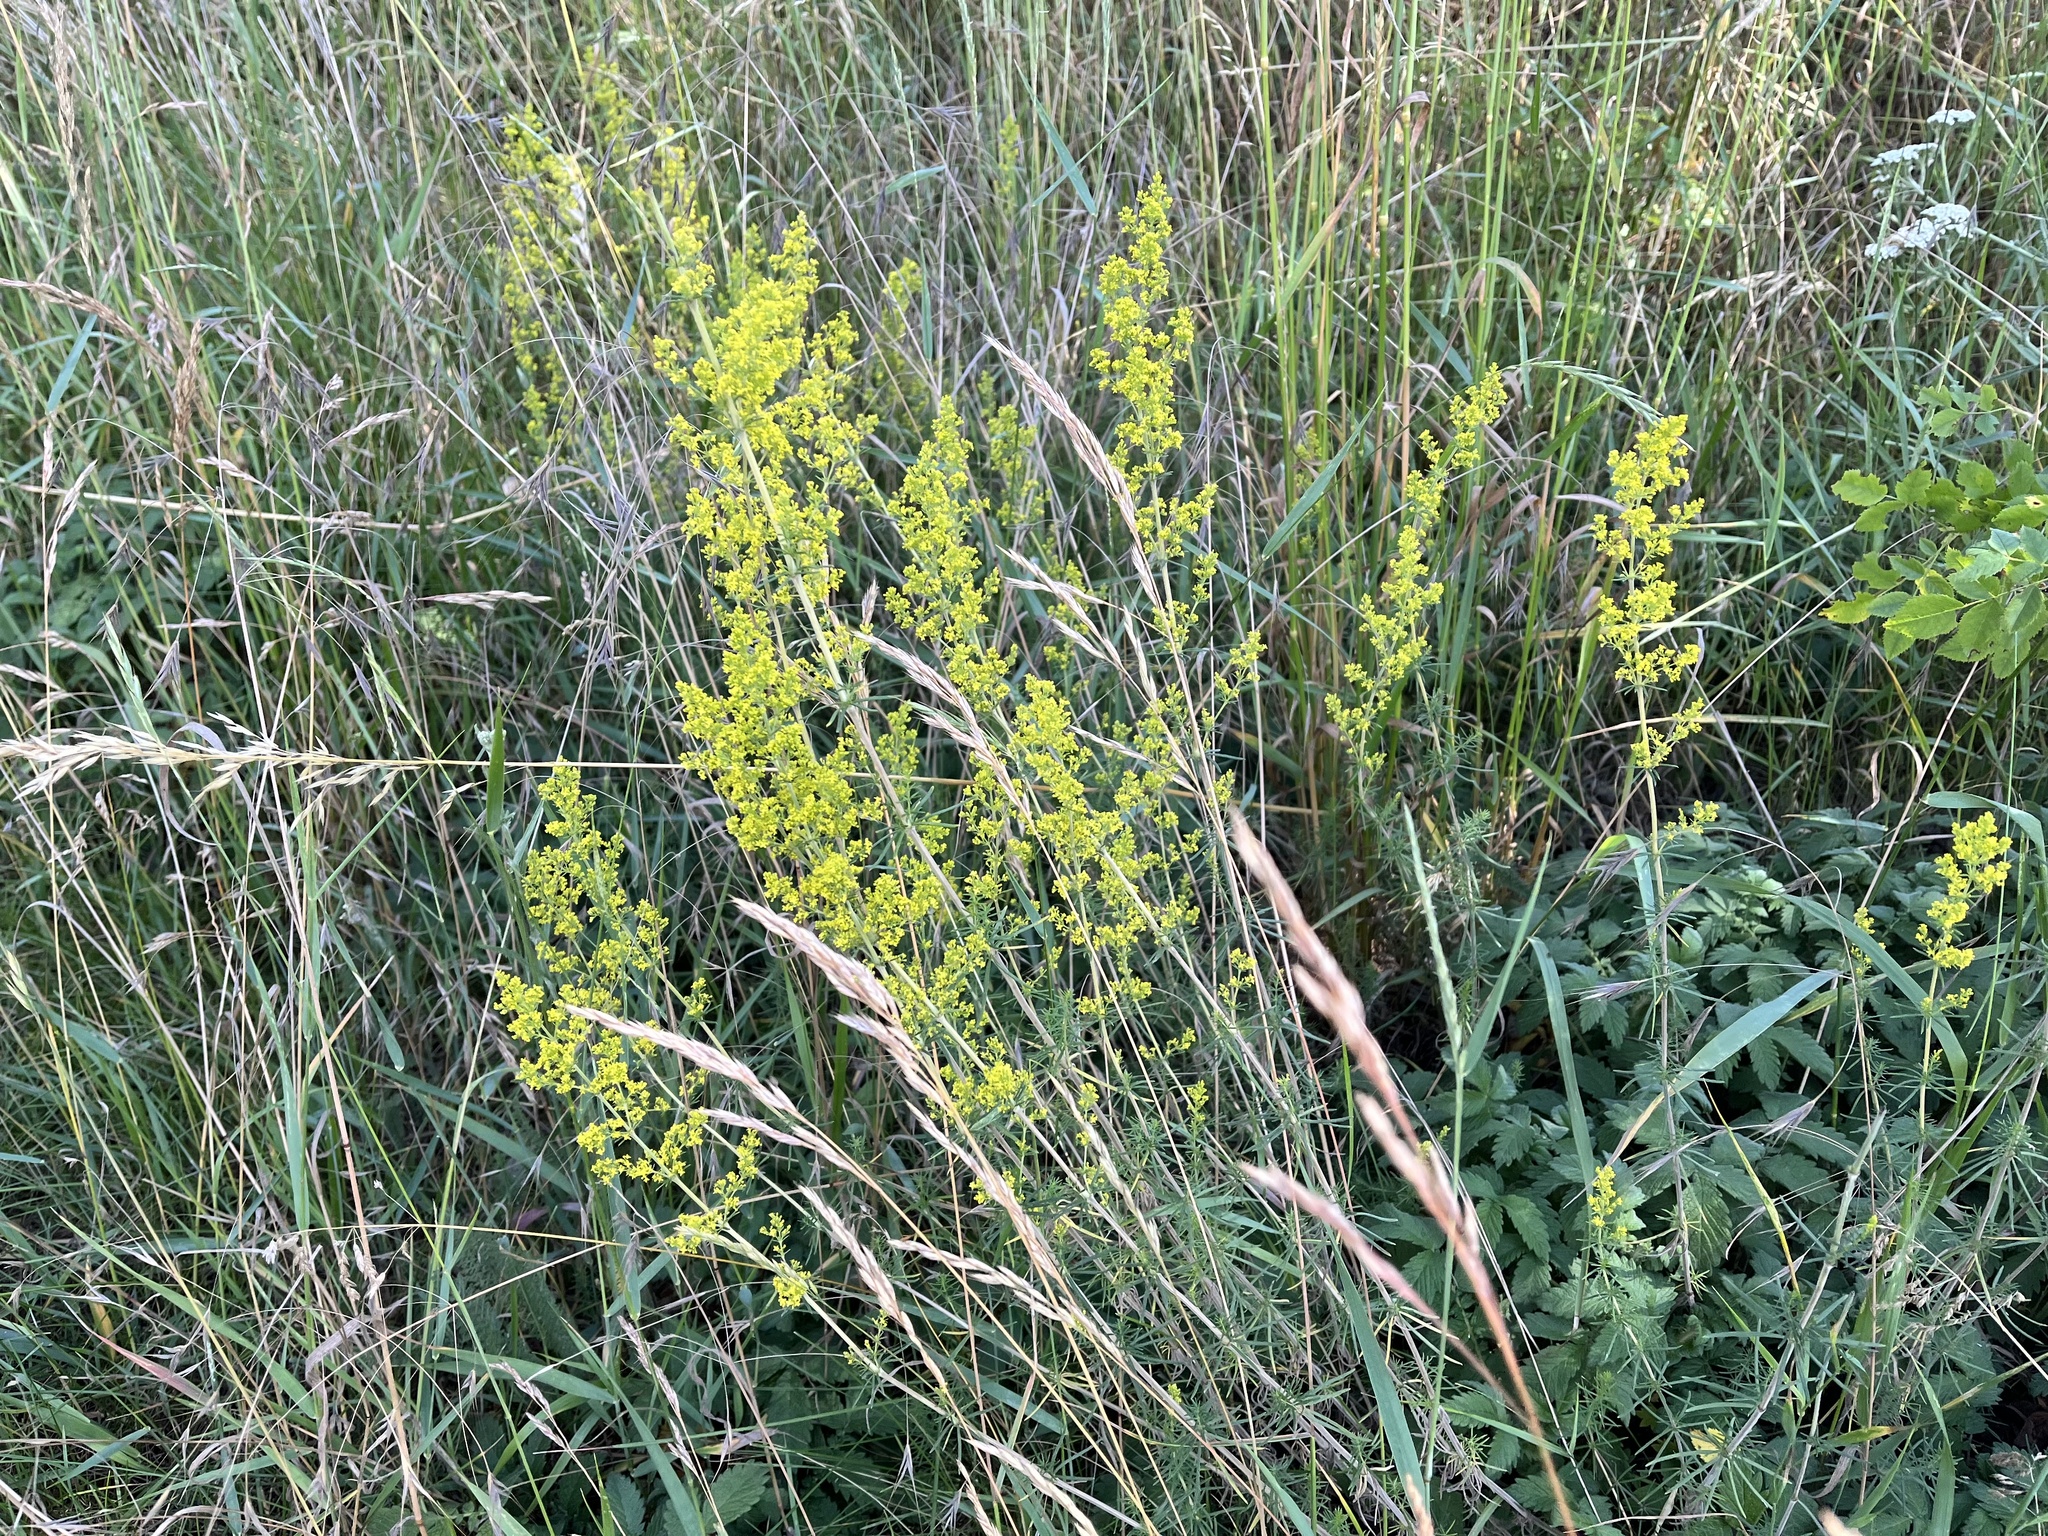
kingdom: Plantae
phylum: Tracheophyta
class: Magnoliopsida
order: Gentianales
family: Rubiaceae
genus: Galium
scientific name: Galium verum
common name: Lady's bedstraw
